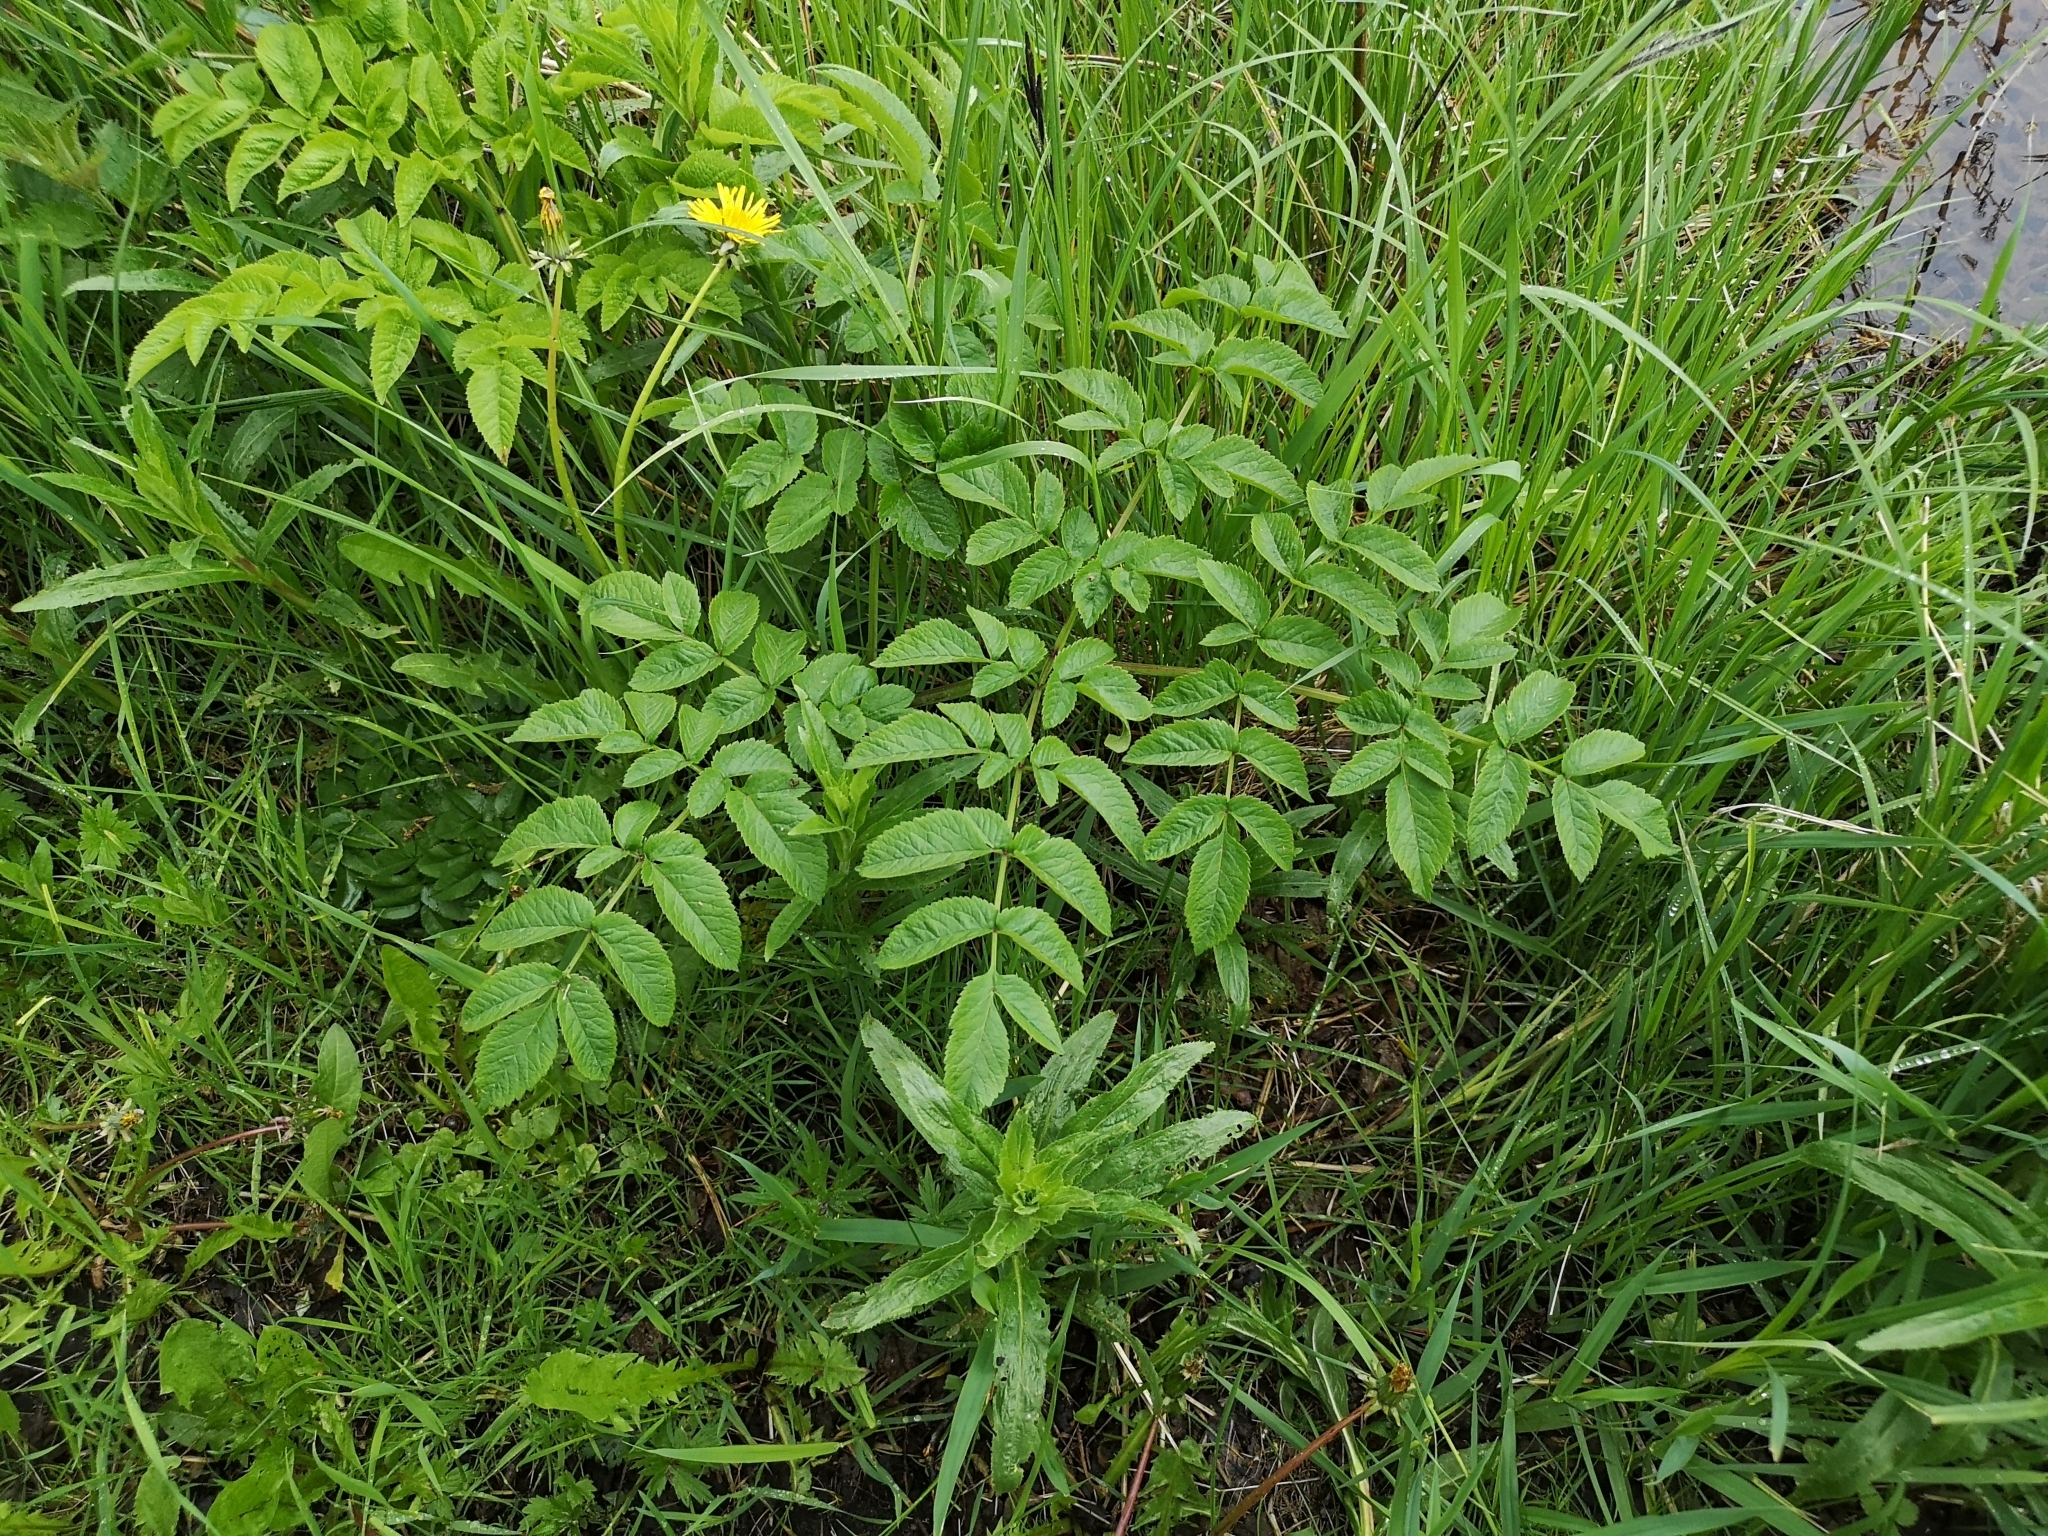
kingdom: Plantae
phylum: Tracheophyta
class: Magnoliopsida
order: Apiales
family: Apiaceae
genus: Angelica
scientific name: Angelica sylvestris
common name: Wild angelica
